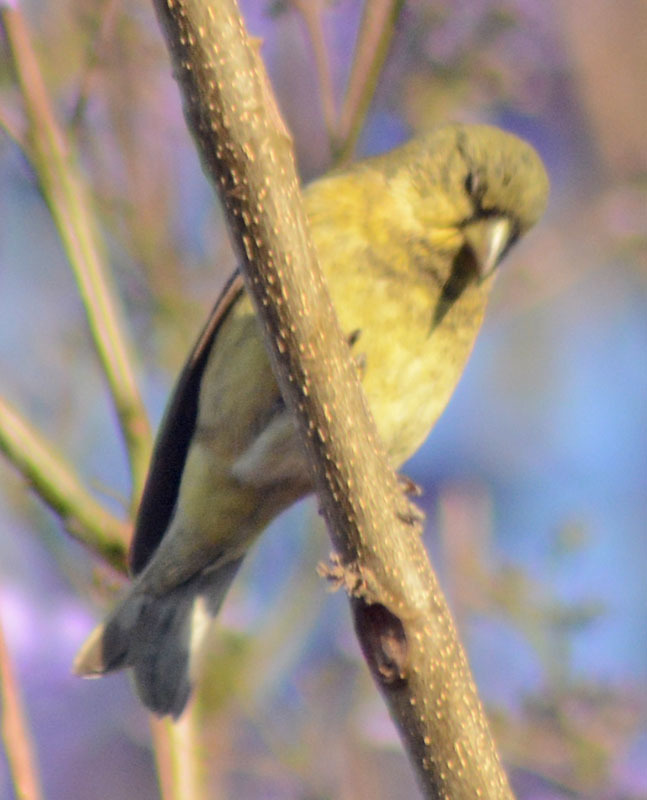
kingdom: Animalia
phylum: Chordata
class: Aves
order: Passeriformes
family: Fringillidae
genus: Spinus
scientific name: Spinus psaltria
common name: Lesser goldfinch
